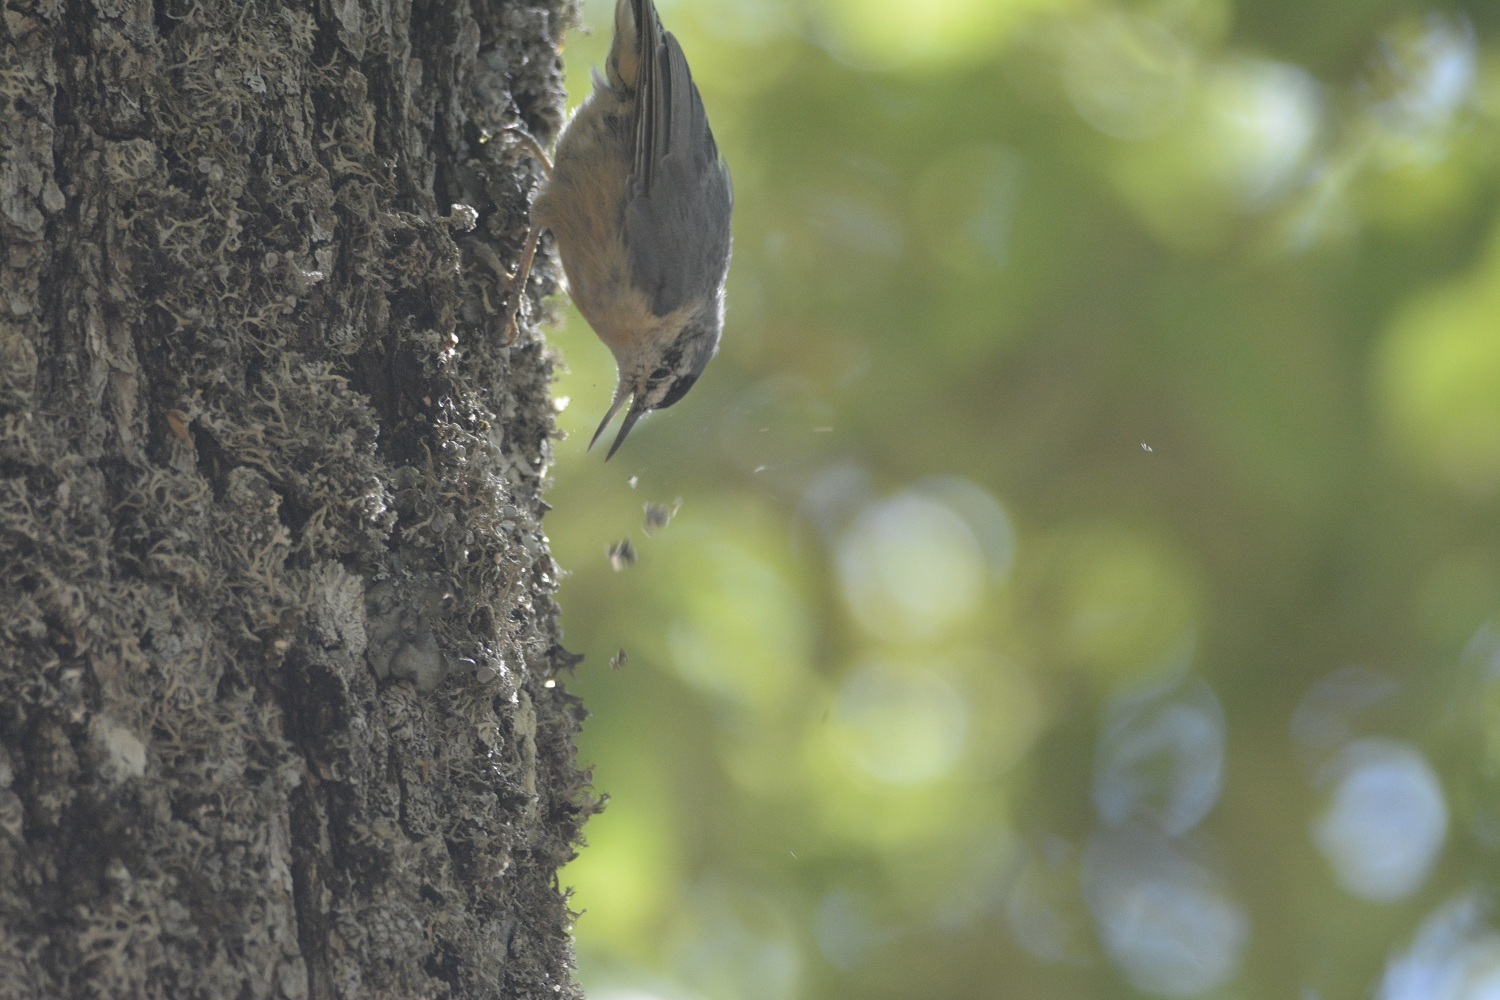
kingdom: Animalia
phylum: Chordata
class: Aves
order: Passeriformes
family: Sittidae
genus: Sitta
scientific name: Sitta ledanti
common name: Algerian nuthatch
